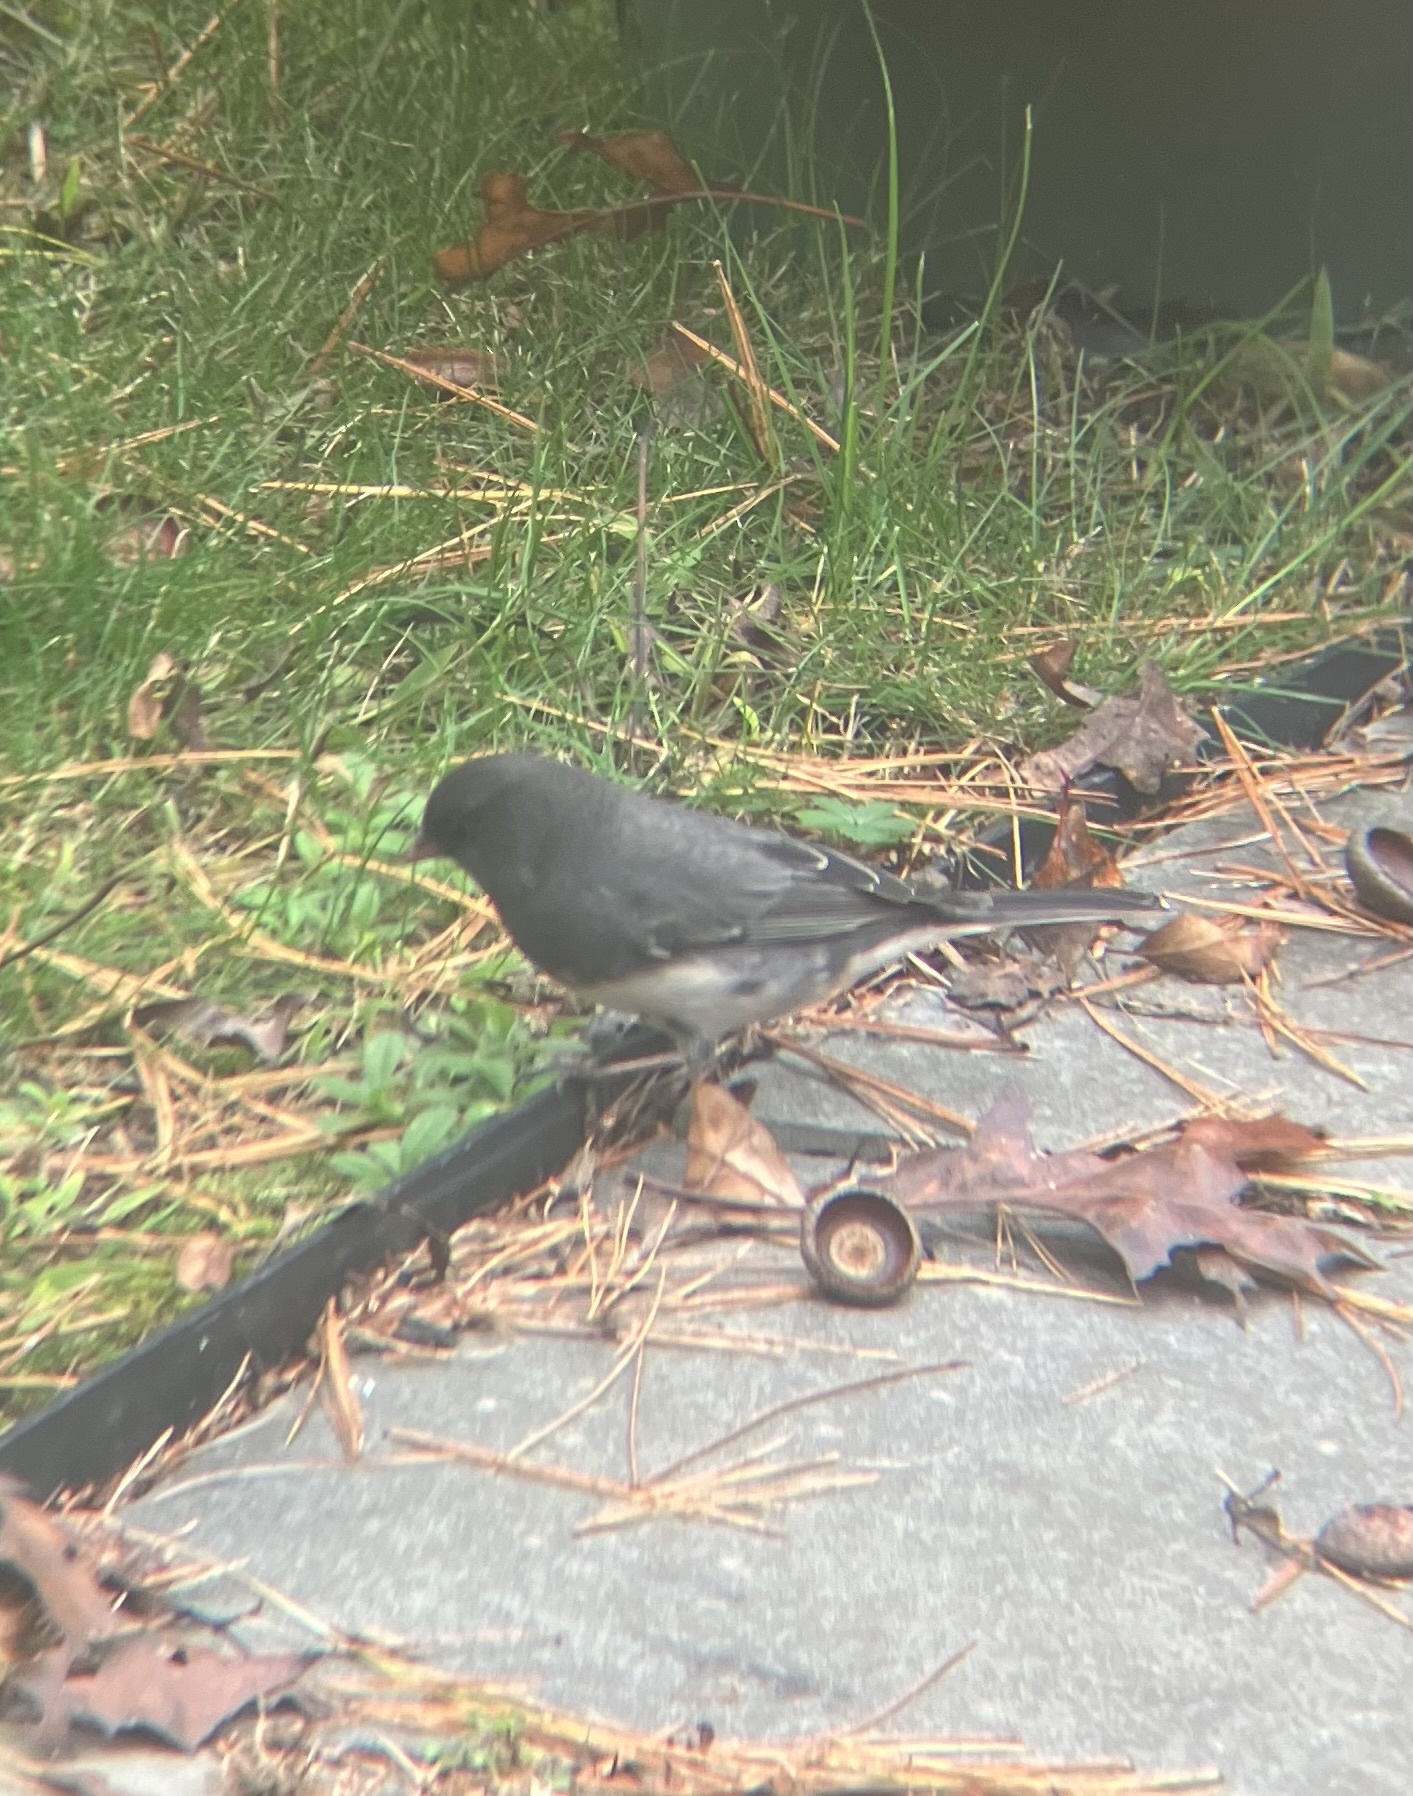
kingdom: Animalia
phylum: Chordata
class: Aves
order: Passeriformes
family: Passerellidae
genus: Junco
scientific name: Junco hyemalis
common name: Dark-eyed junco
